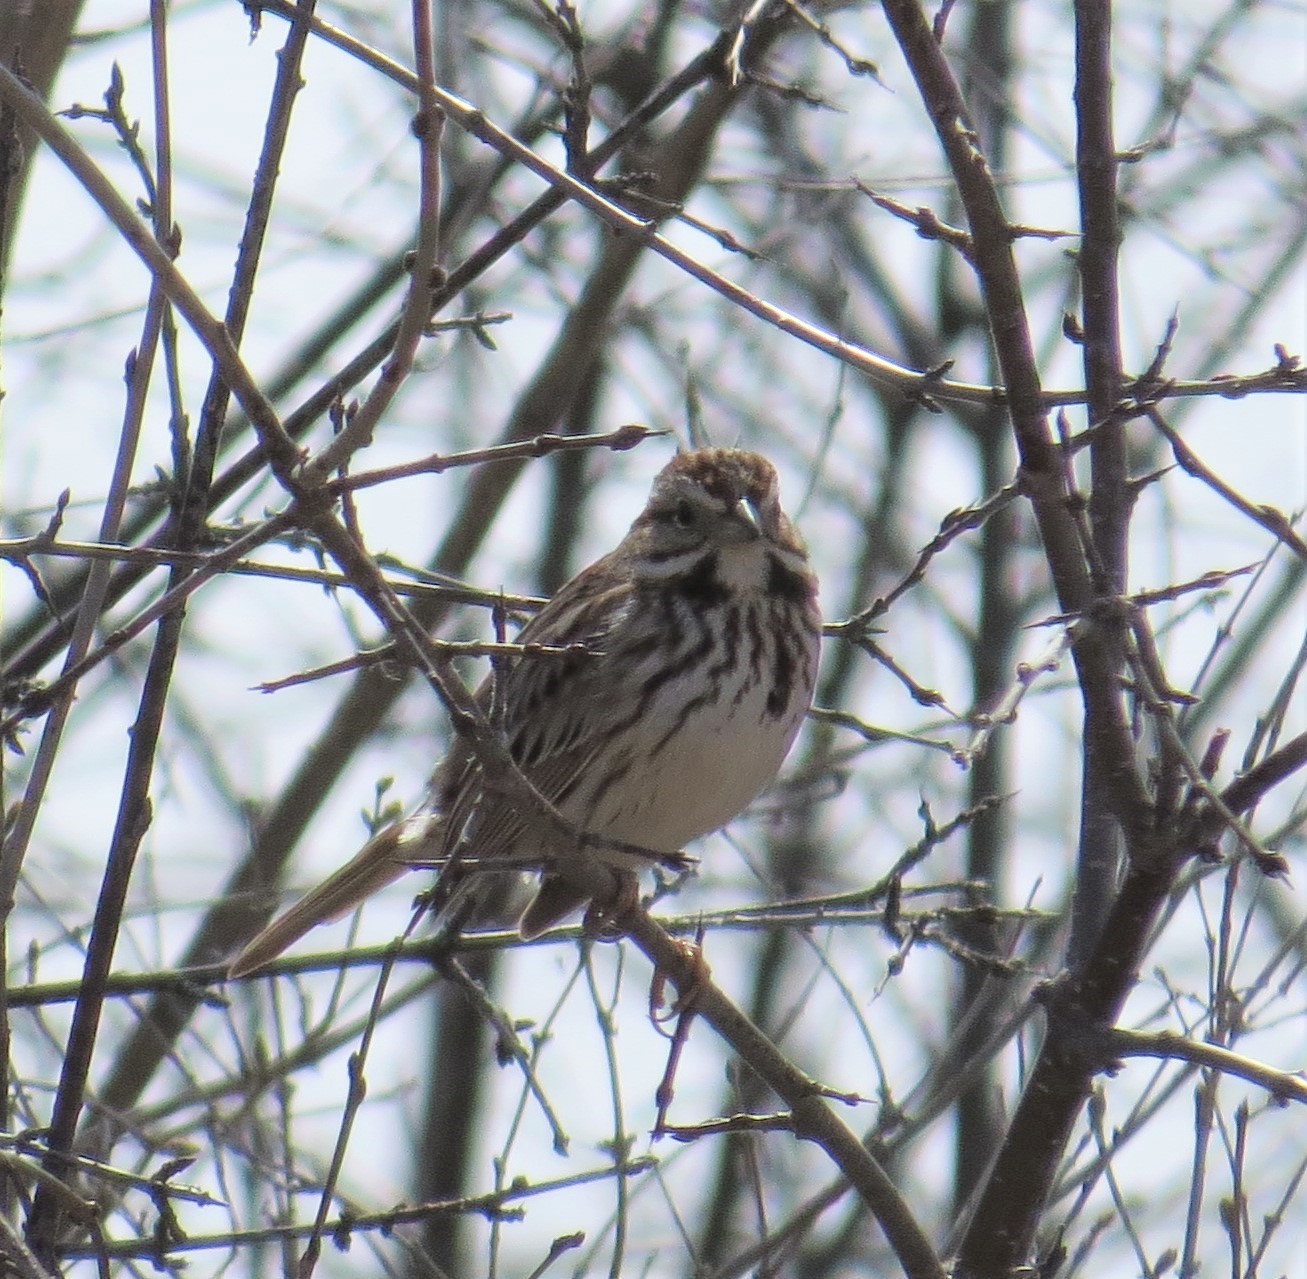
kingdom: Animalia
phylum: Chordata
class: Aves
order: Passeriformes
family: Passerellidae
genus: Melospiza
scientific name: Melospiza melodia
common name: Song sparrow
